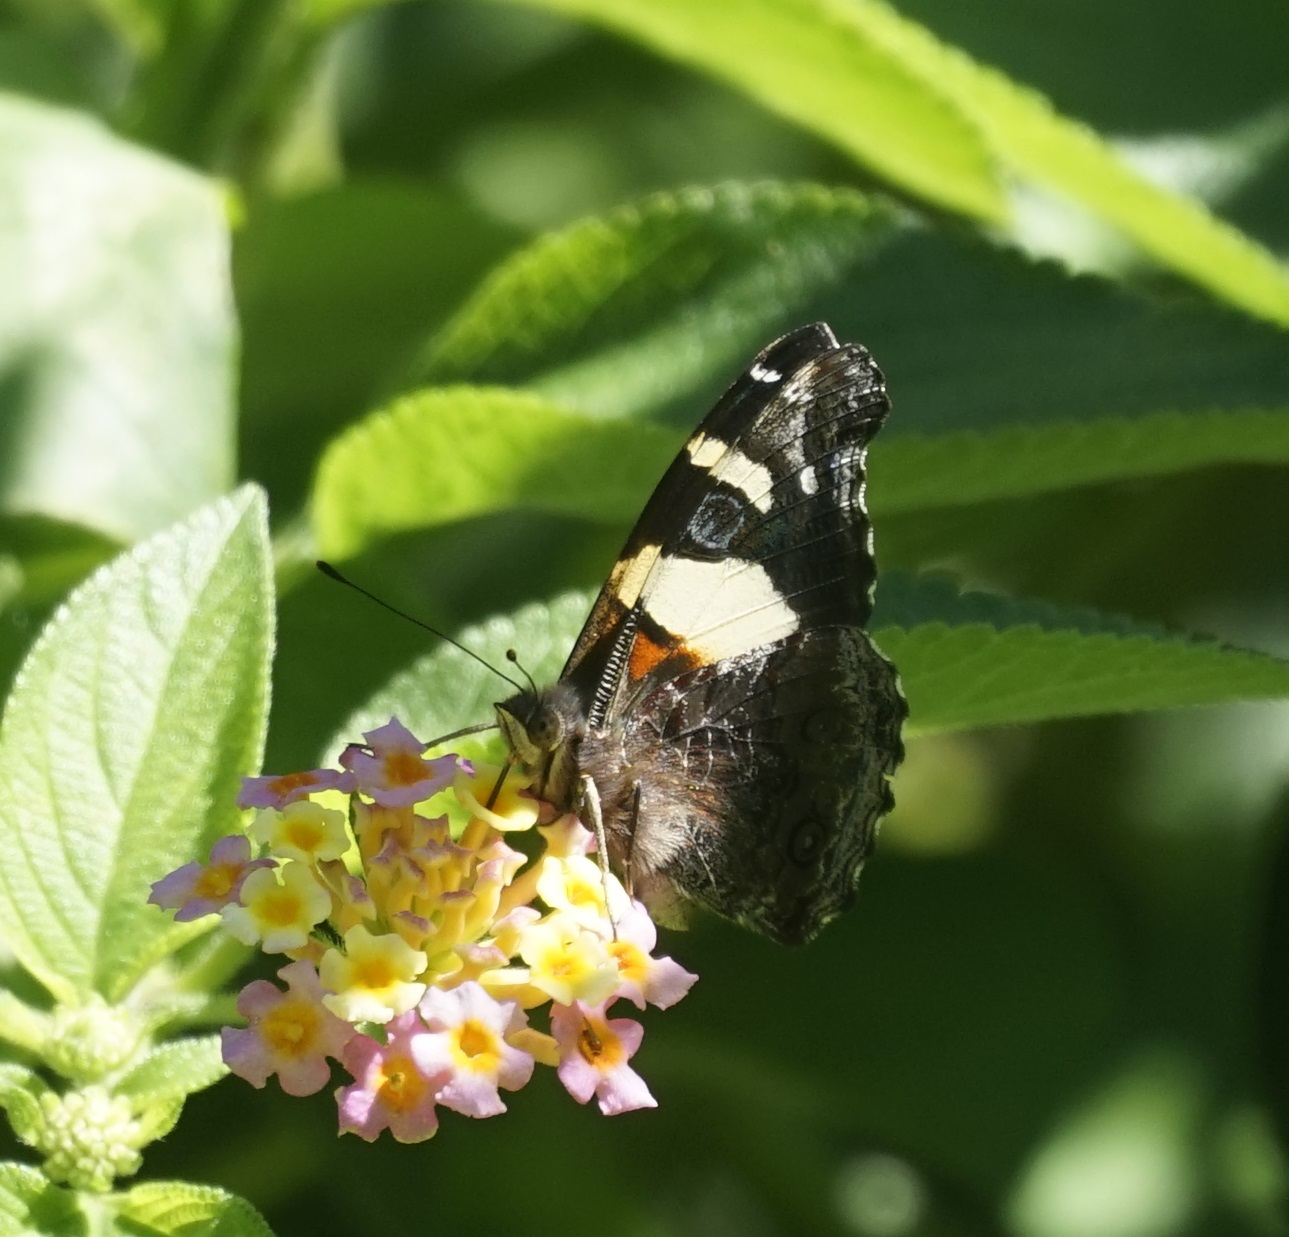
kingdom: Animalia
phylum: Arthropoda
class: Insecta
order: Lepidoptera
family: Nymphalidae
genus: Vanessa
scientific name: Vanessa itea
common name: Yellow admiral
